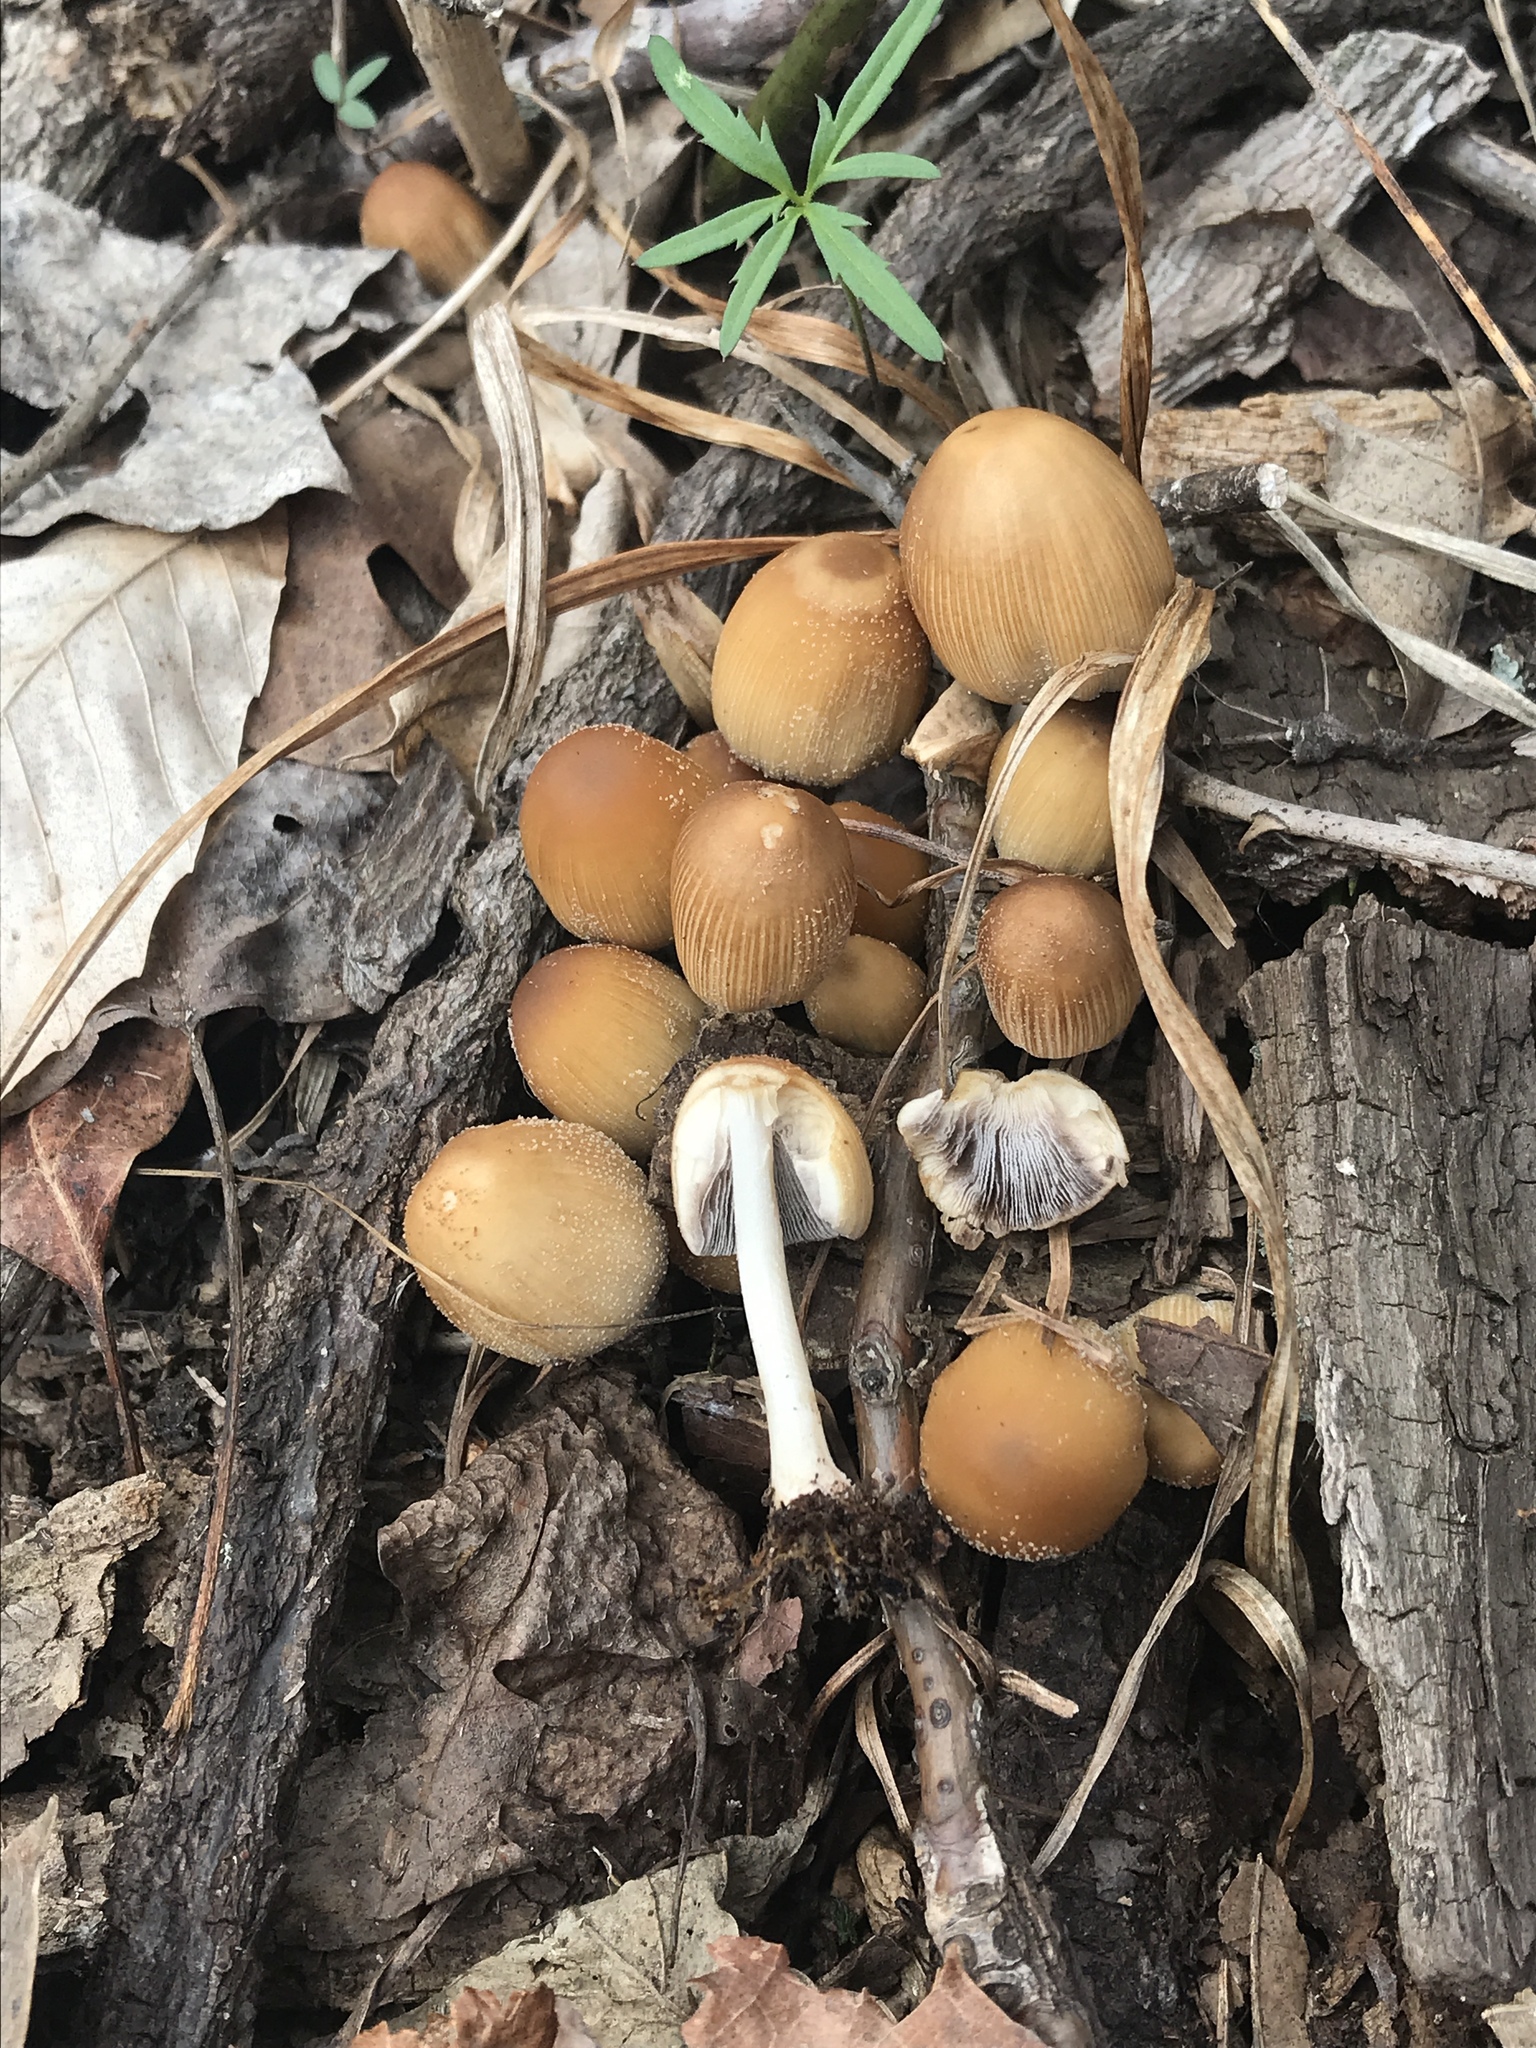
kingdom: Fungi
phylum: Basidiomycota
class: Agaricomycetes
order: Agaricales
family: Psathyrellaceae
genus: Coprinellus
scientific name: Coprinellus micaceus
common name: Glistening ink-cap
